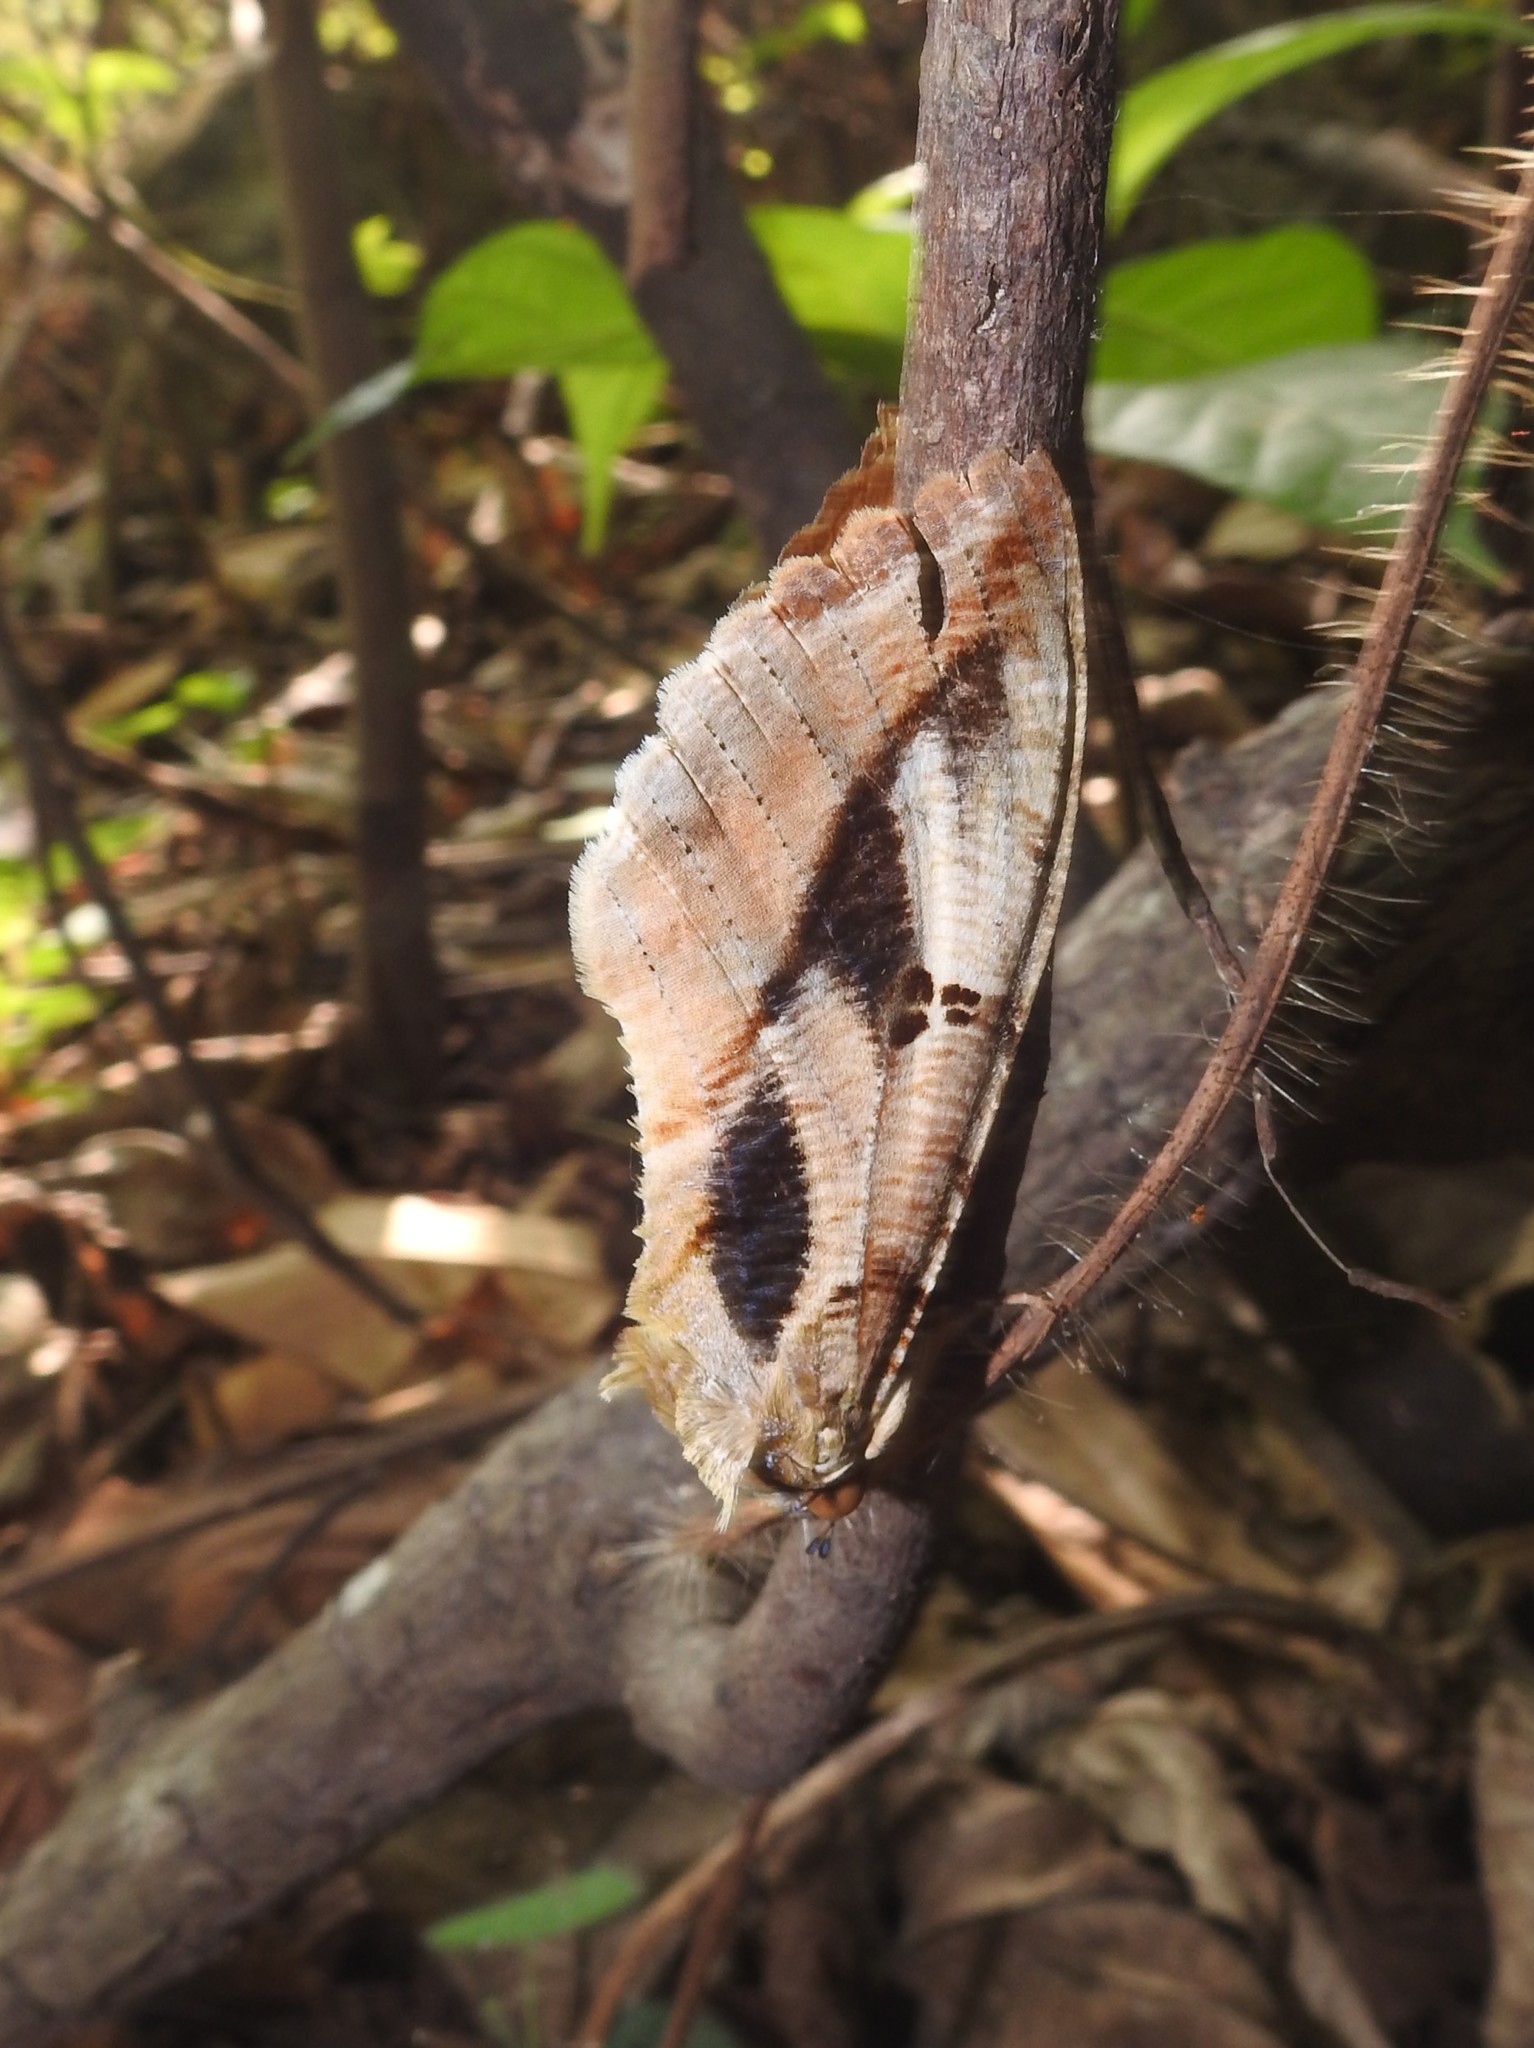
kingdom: Animalia
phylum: Arthropoda
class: Insecta
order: Lepidoptera
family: Erebidae
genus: Eudocima
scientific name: Eudocima materna
